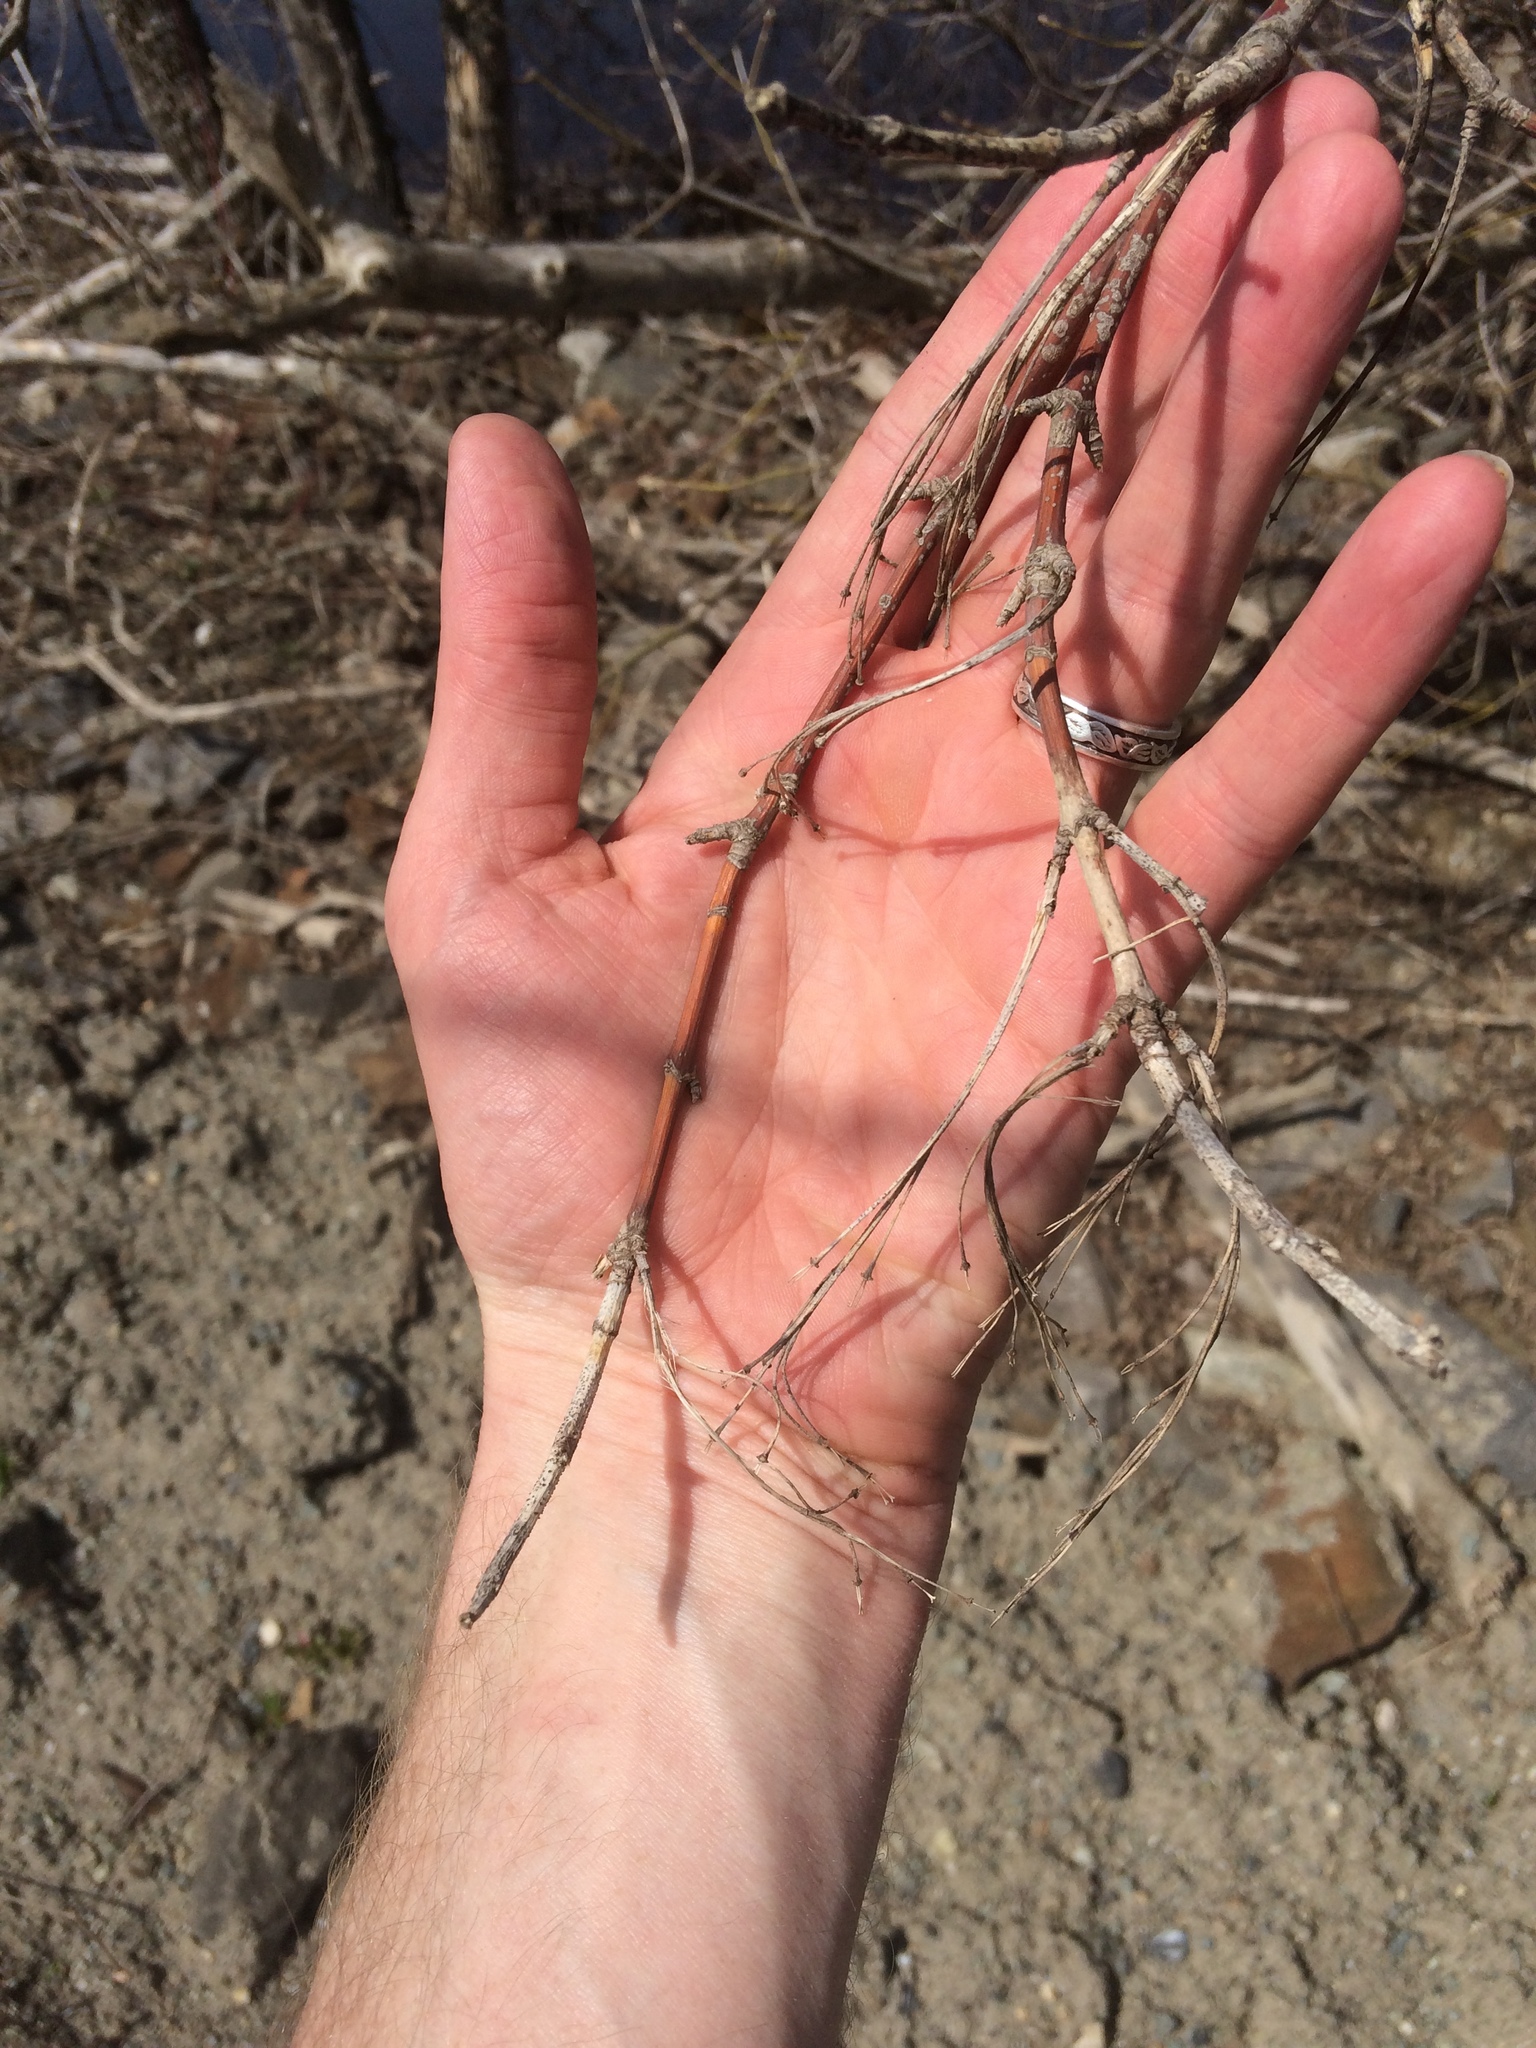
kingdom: Plantae
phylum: Tracheophyta
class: Magnoliopsida
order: Sapindales
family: Sapindaceae
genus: Acer
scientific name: Acer negundo
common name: Ashleaf maple
